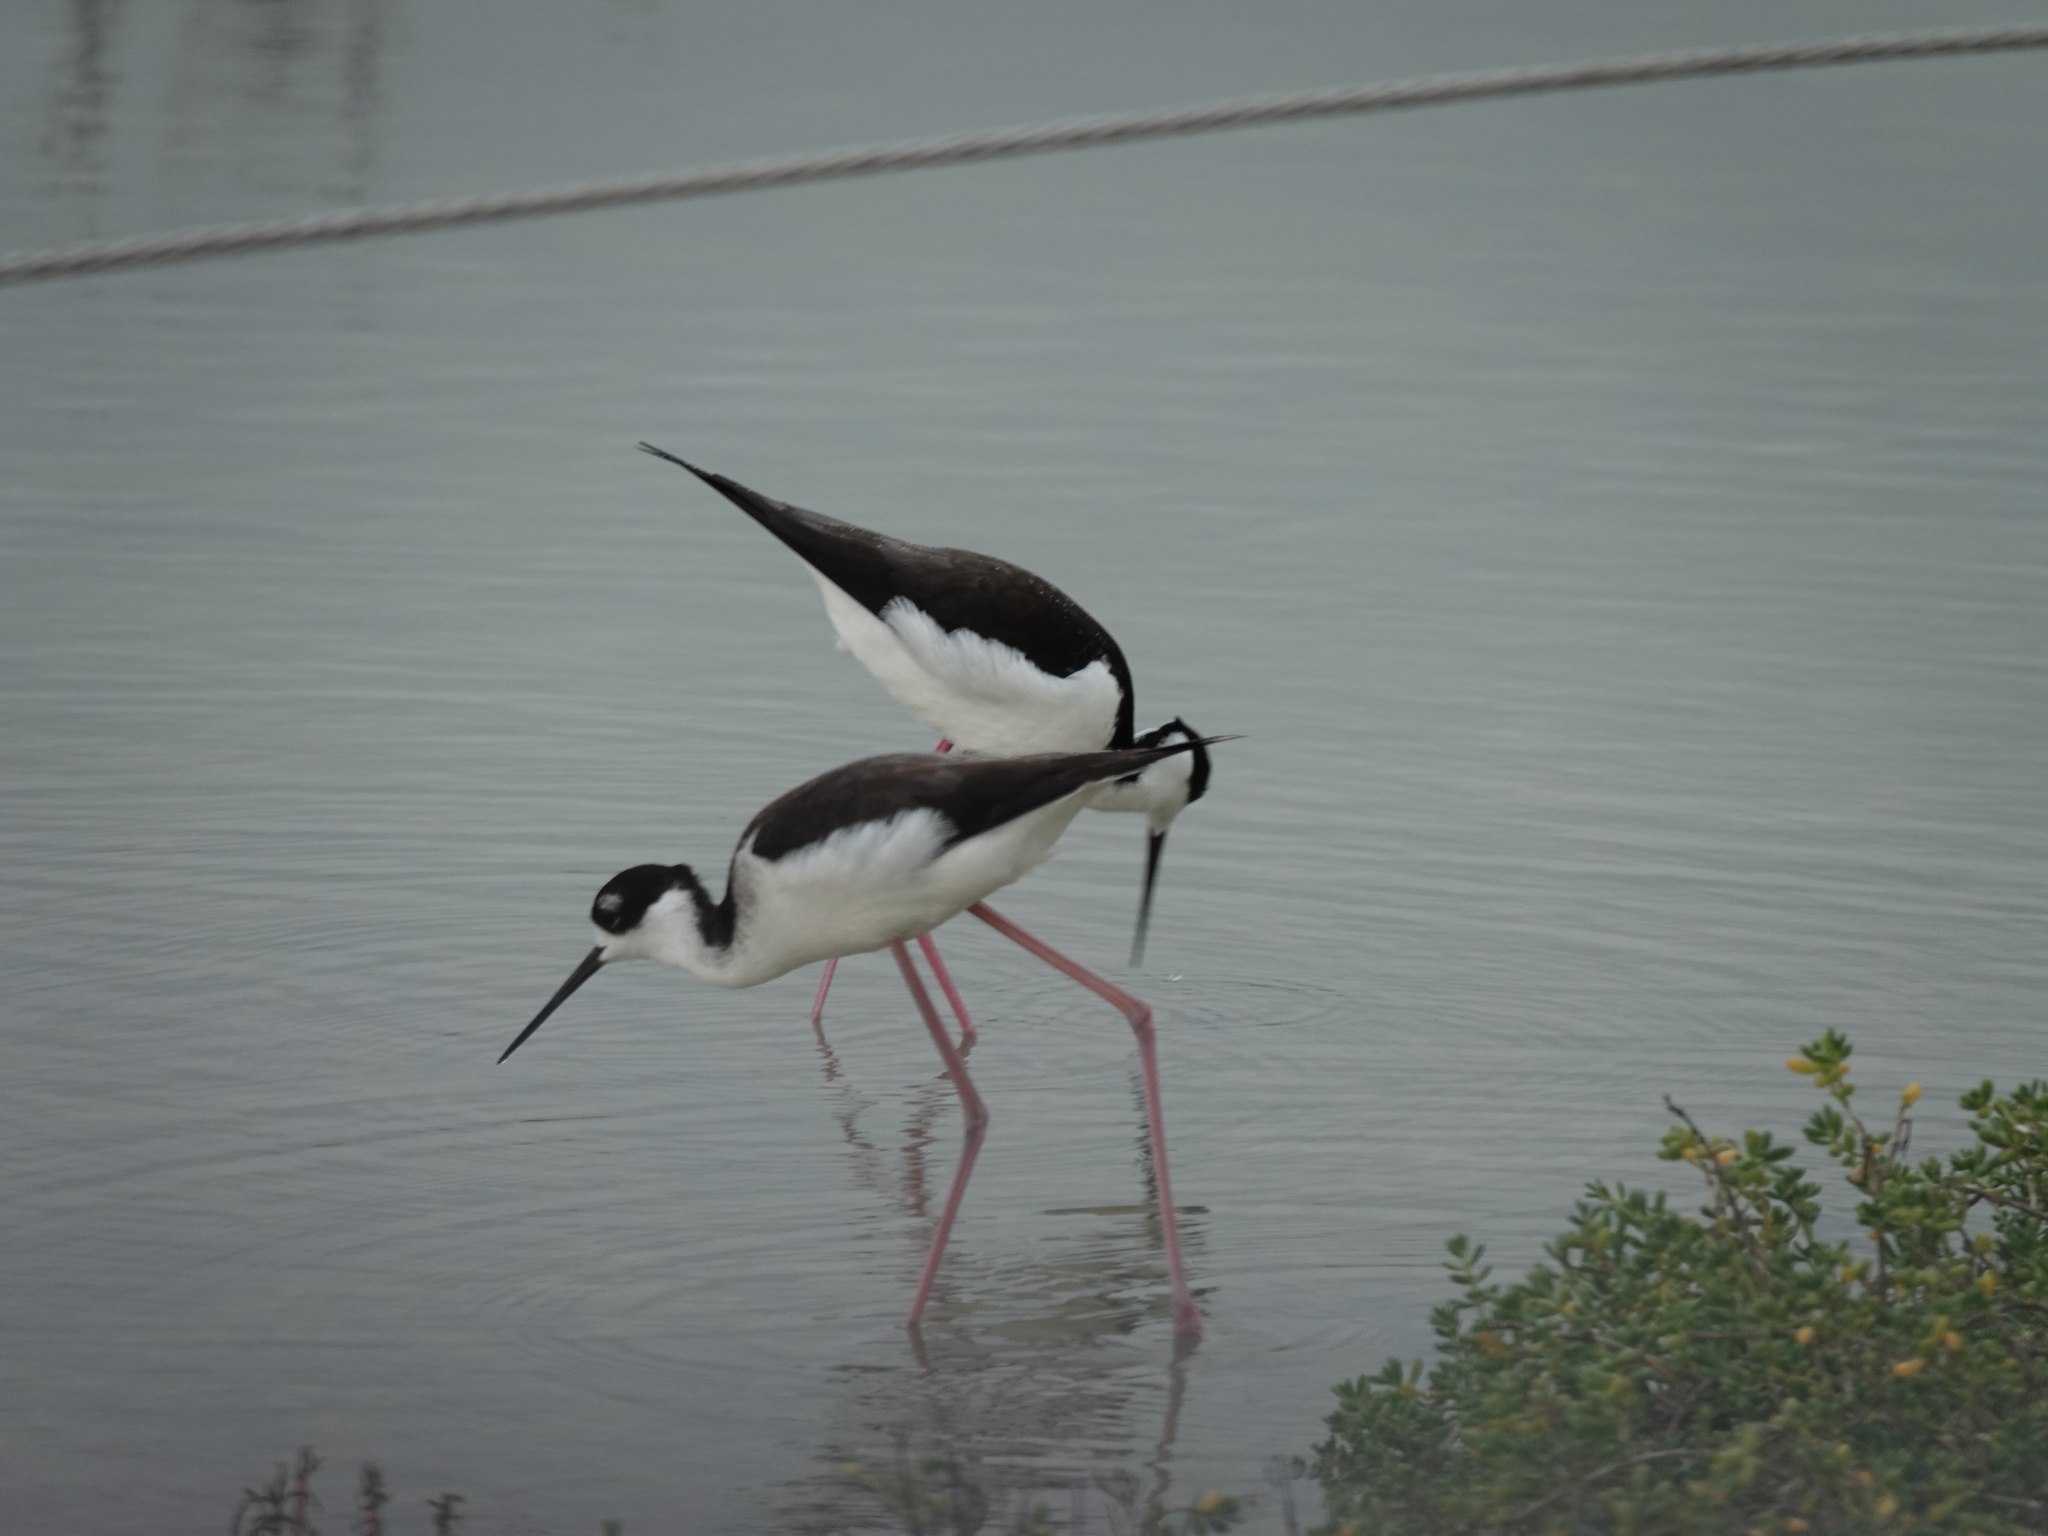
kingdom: Animalia
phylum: Chordata
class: Aves
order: Charadriiformes
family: Recurvirostridae
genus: Himantopus
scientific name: Himantopus mexicanus
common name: Black-necked stilt
